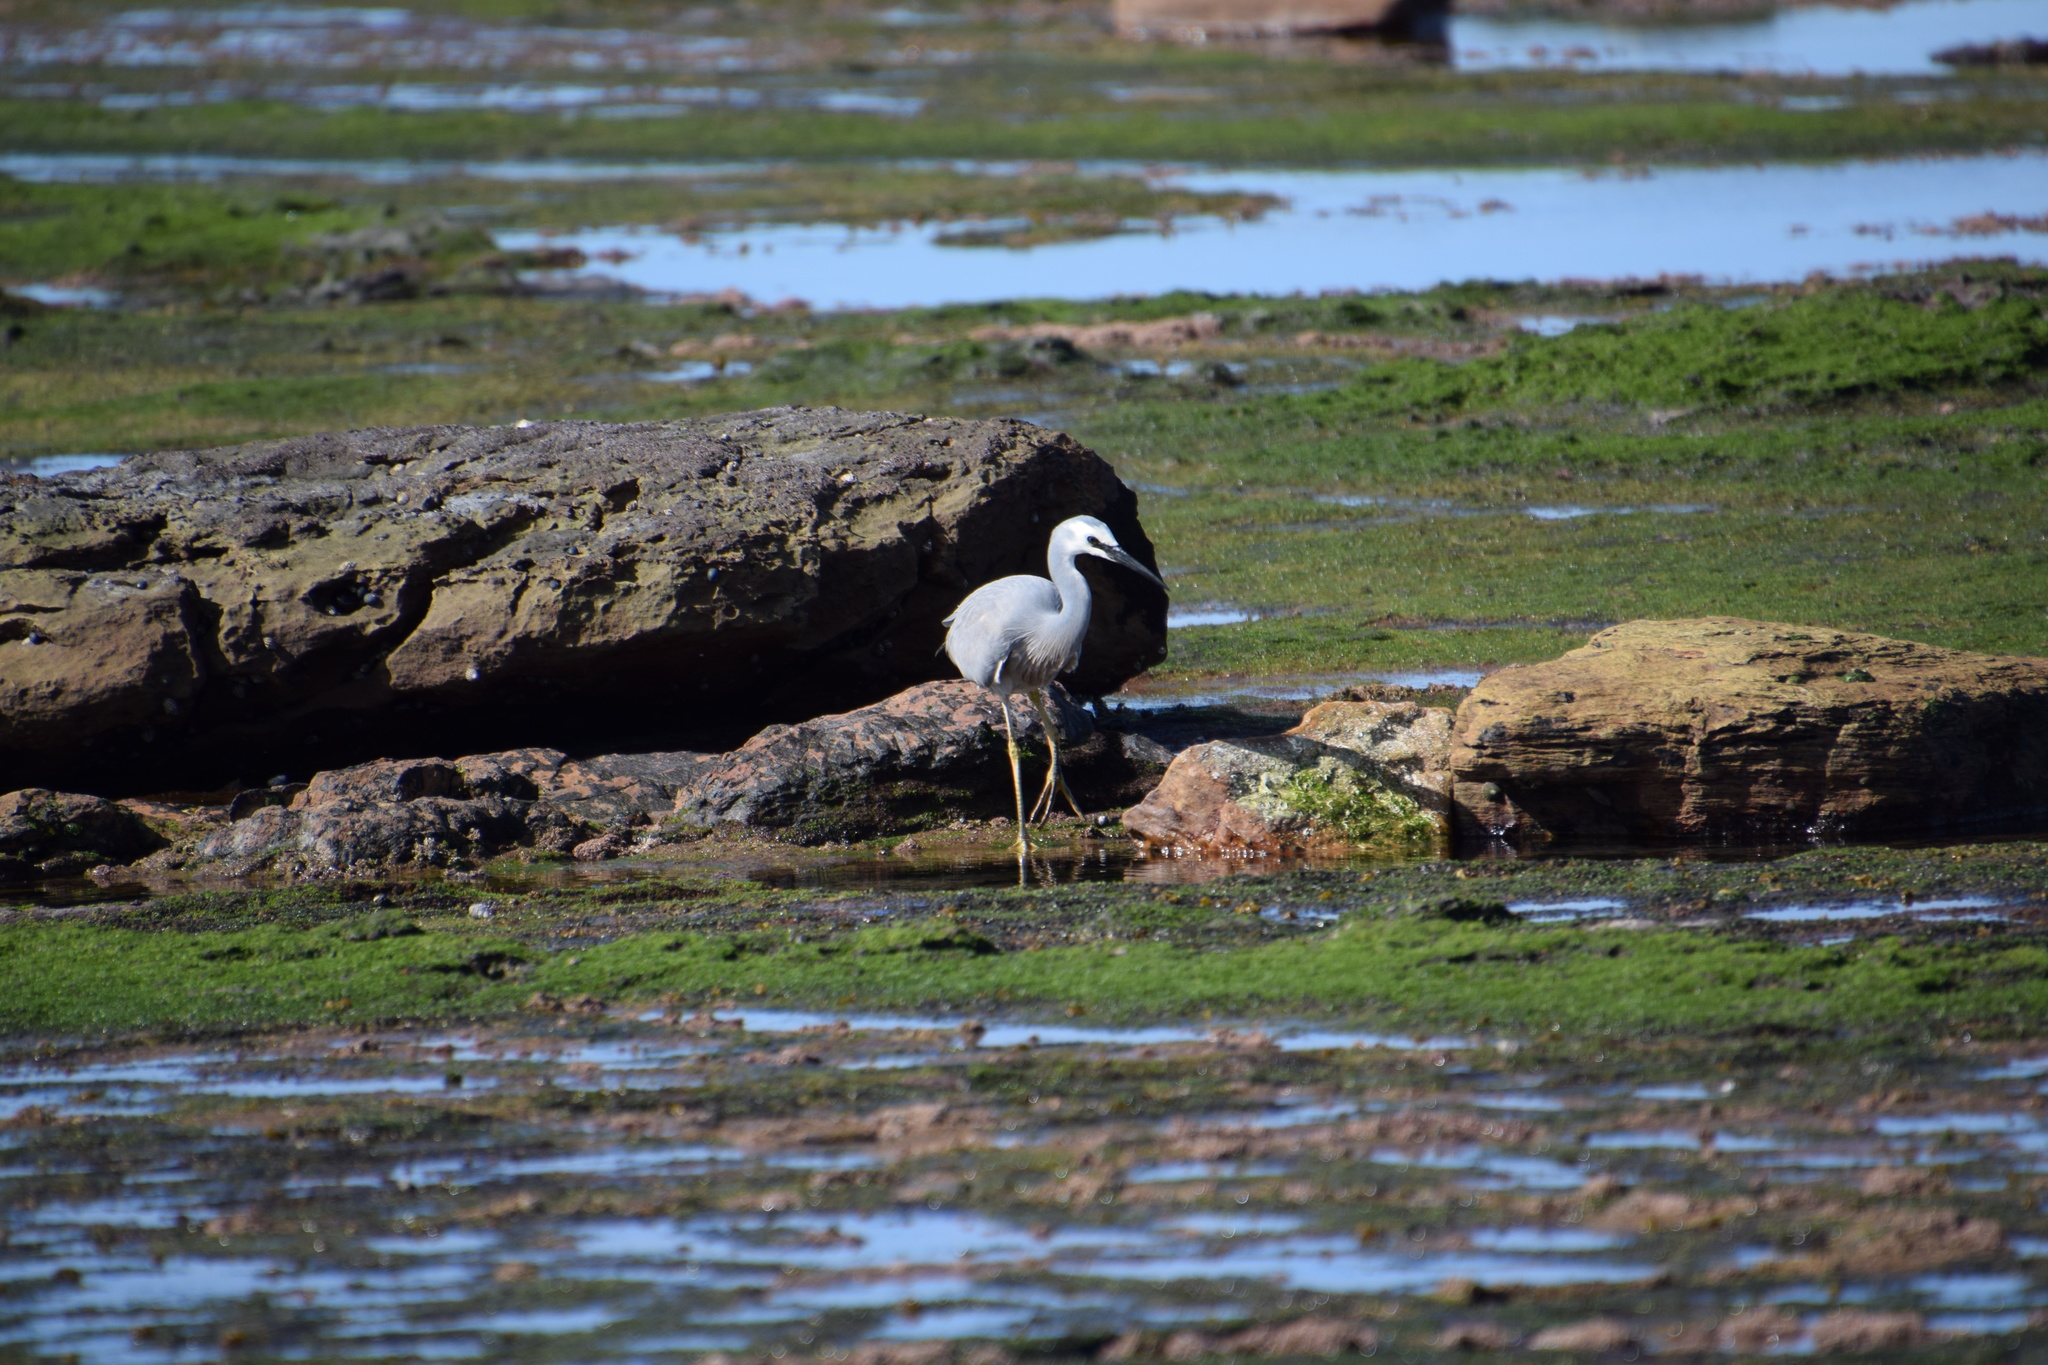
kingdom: Animalia
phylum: Chordata
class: Aves
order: Pelecaniformes
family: Ardeidae
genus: Egretta
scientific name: Egretta novaehollandiae
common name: White-faced heron
